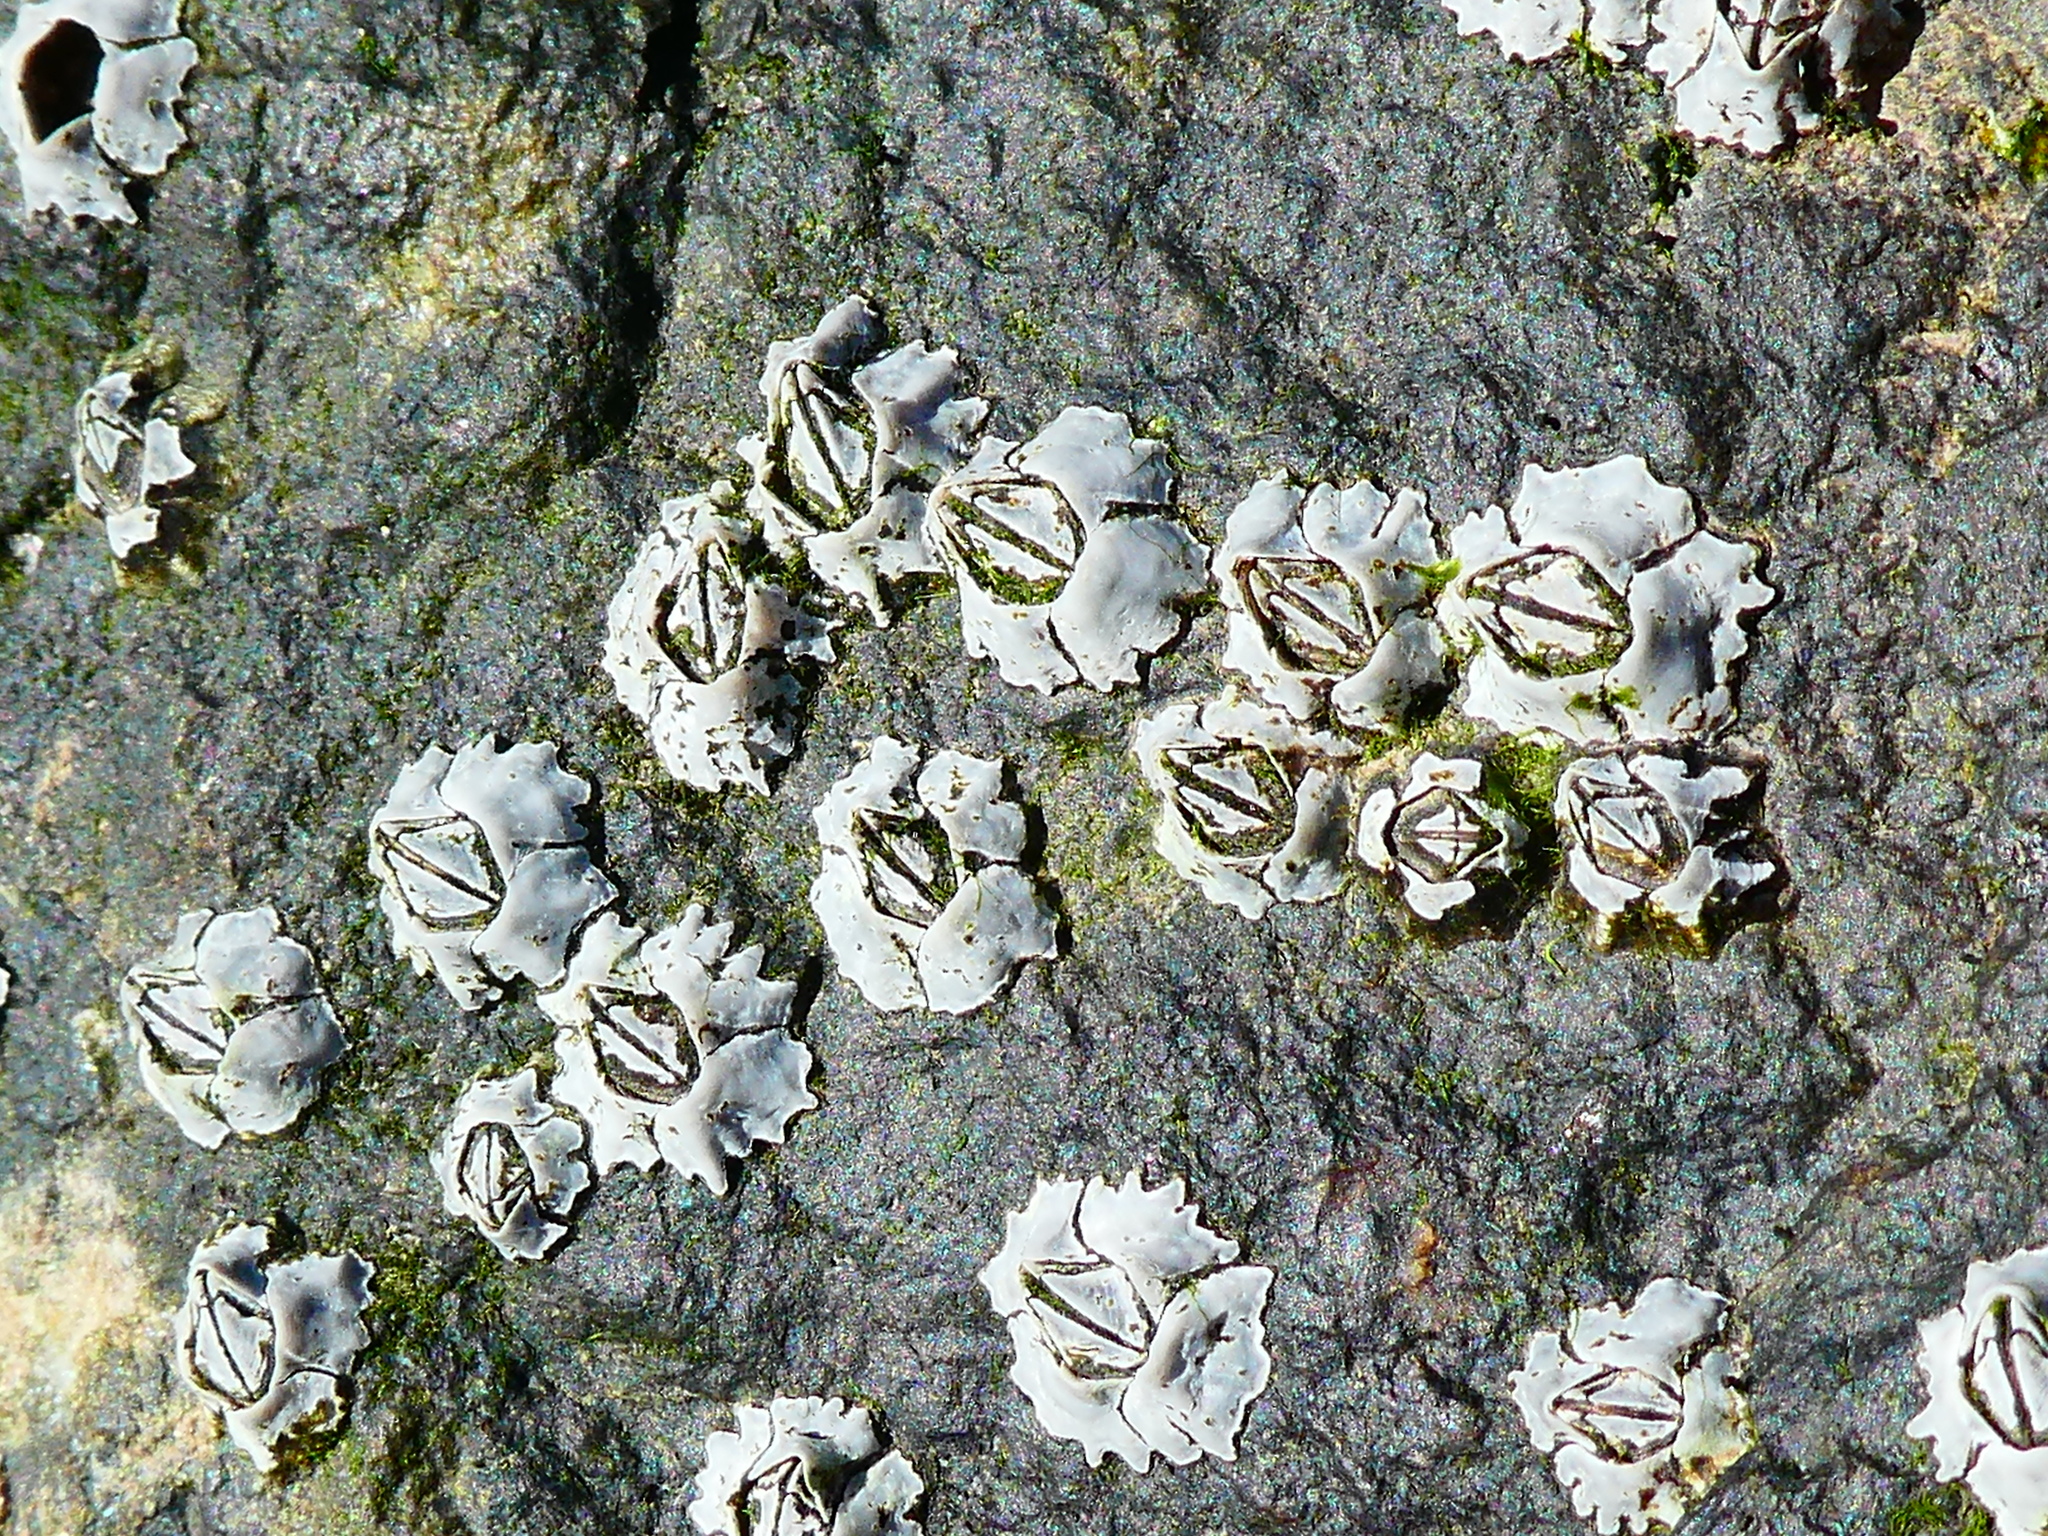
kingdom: Animalia
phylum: Arthropoda
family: Elminiidae
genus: Austrominius
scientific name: Austrominius modestus
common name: Australasian barnacle
